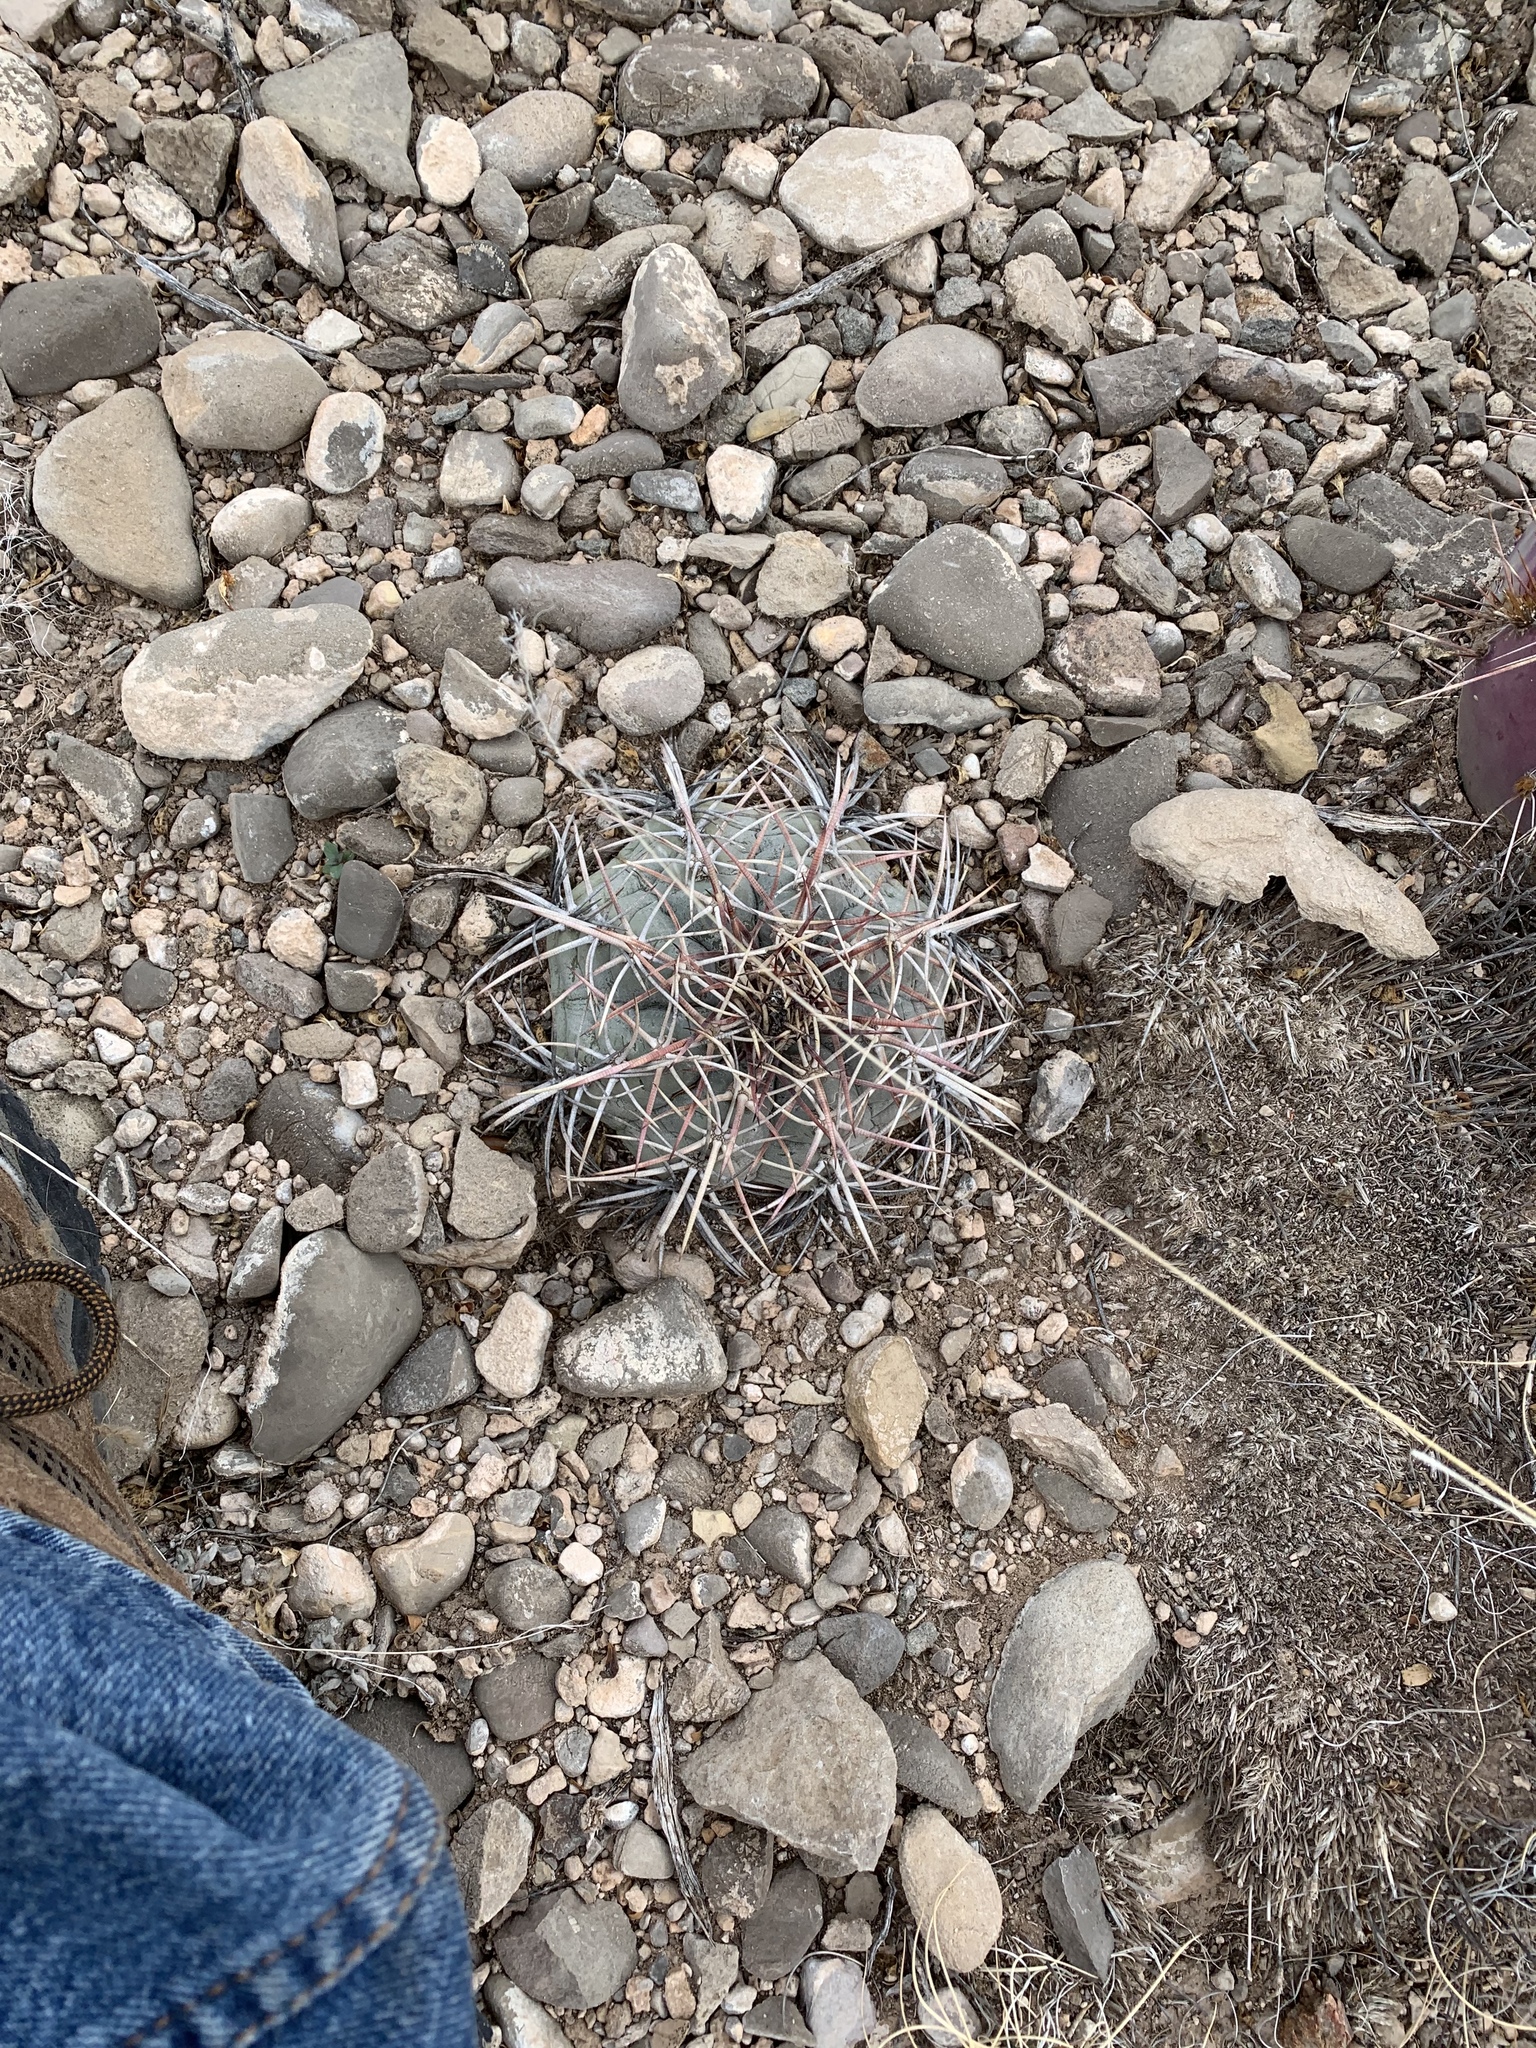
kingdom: Plantae
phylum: Tracheophyta
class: Magnoliopsida
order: Caryophyllales
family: Cactaceae
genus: Echinocactus
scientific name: Echinocactus horizonthalonius
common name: Devilshead
